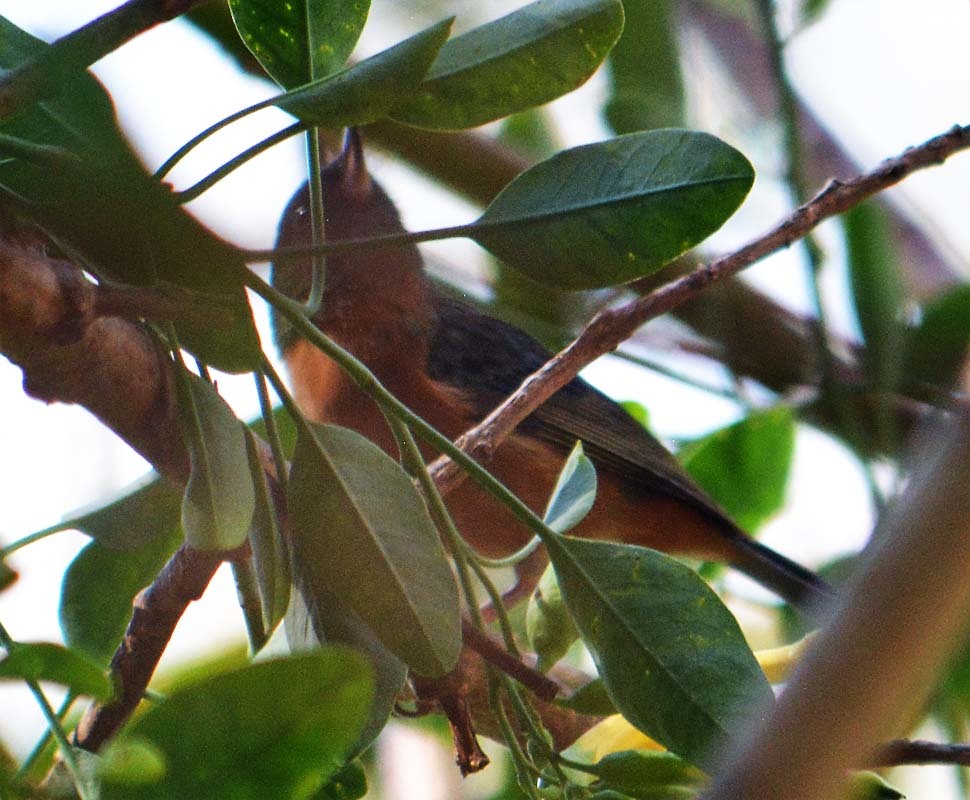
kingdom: Animalia
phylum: Chordata
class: Aves
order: Passeriformes
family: Thraupidae
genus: Diglossa
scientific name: Diglossa baritula
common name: Cinnamon-bellied flowerpiercer
